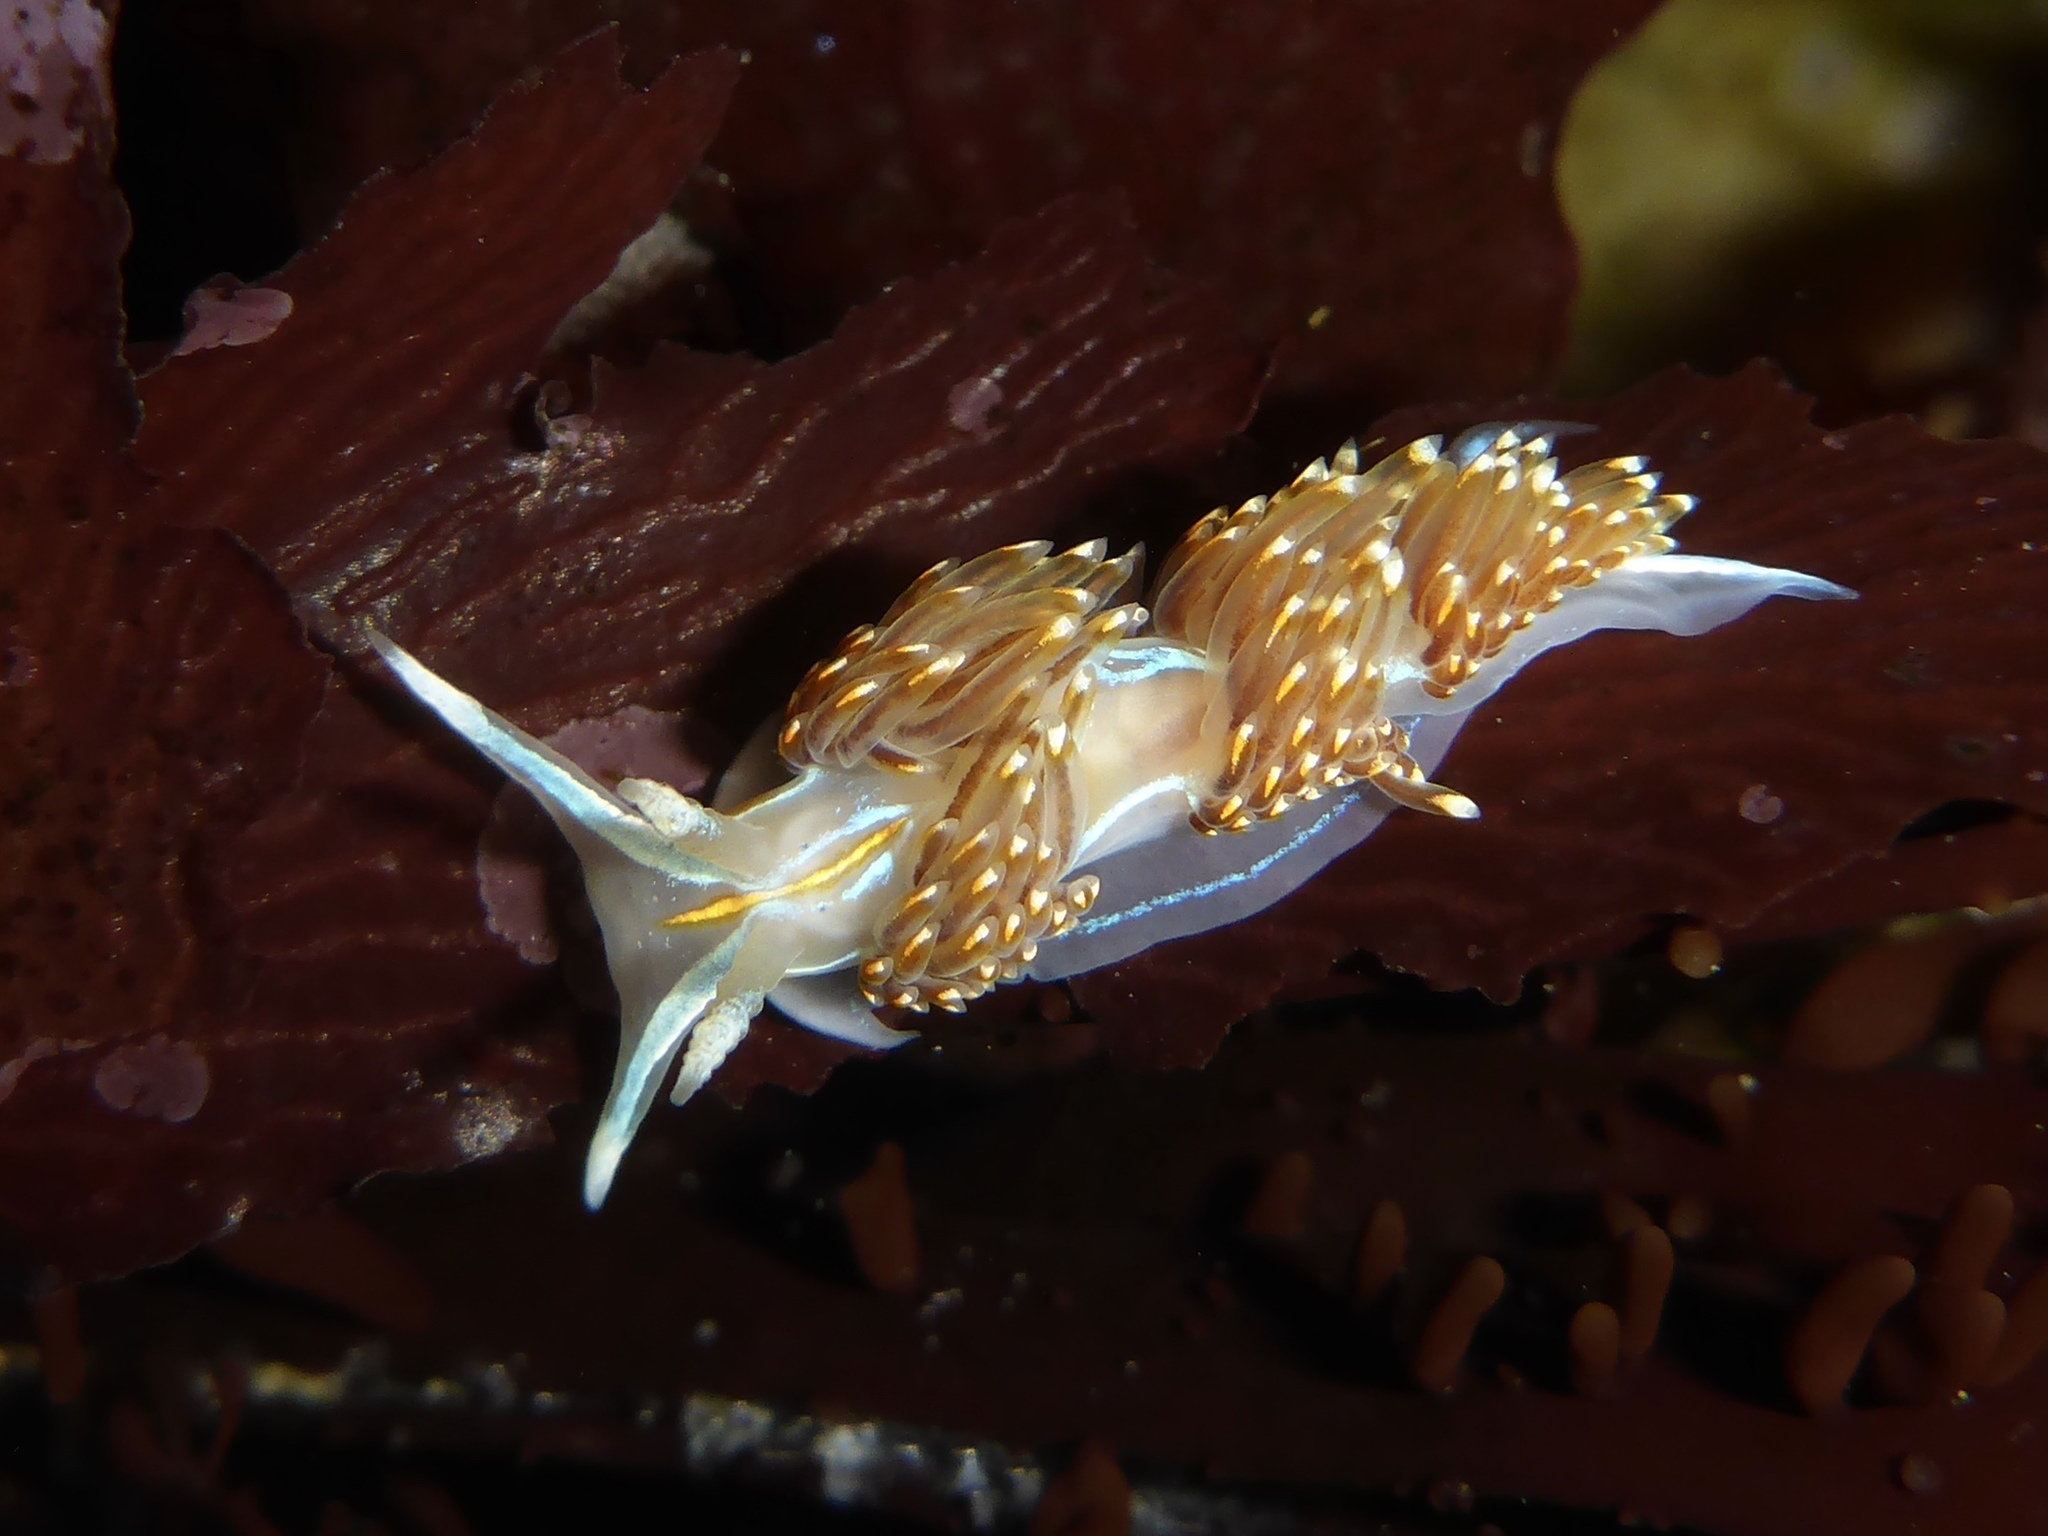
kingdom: Animalia
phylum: Mollusca
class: Gastropoda
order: Nudibranchia
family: Myrrhinidae
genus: Hermissenda
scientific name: Hermissenda opalescens
